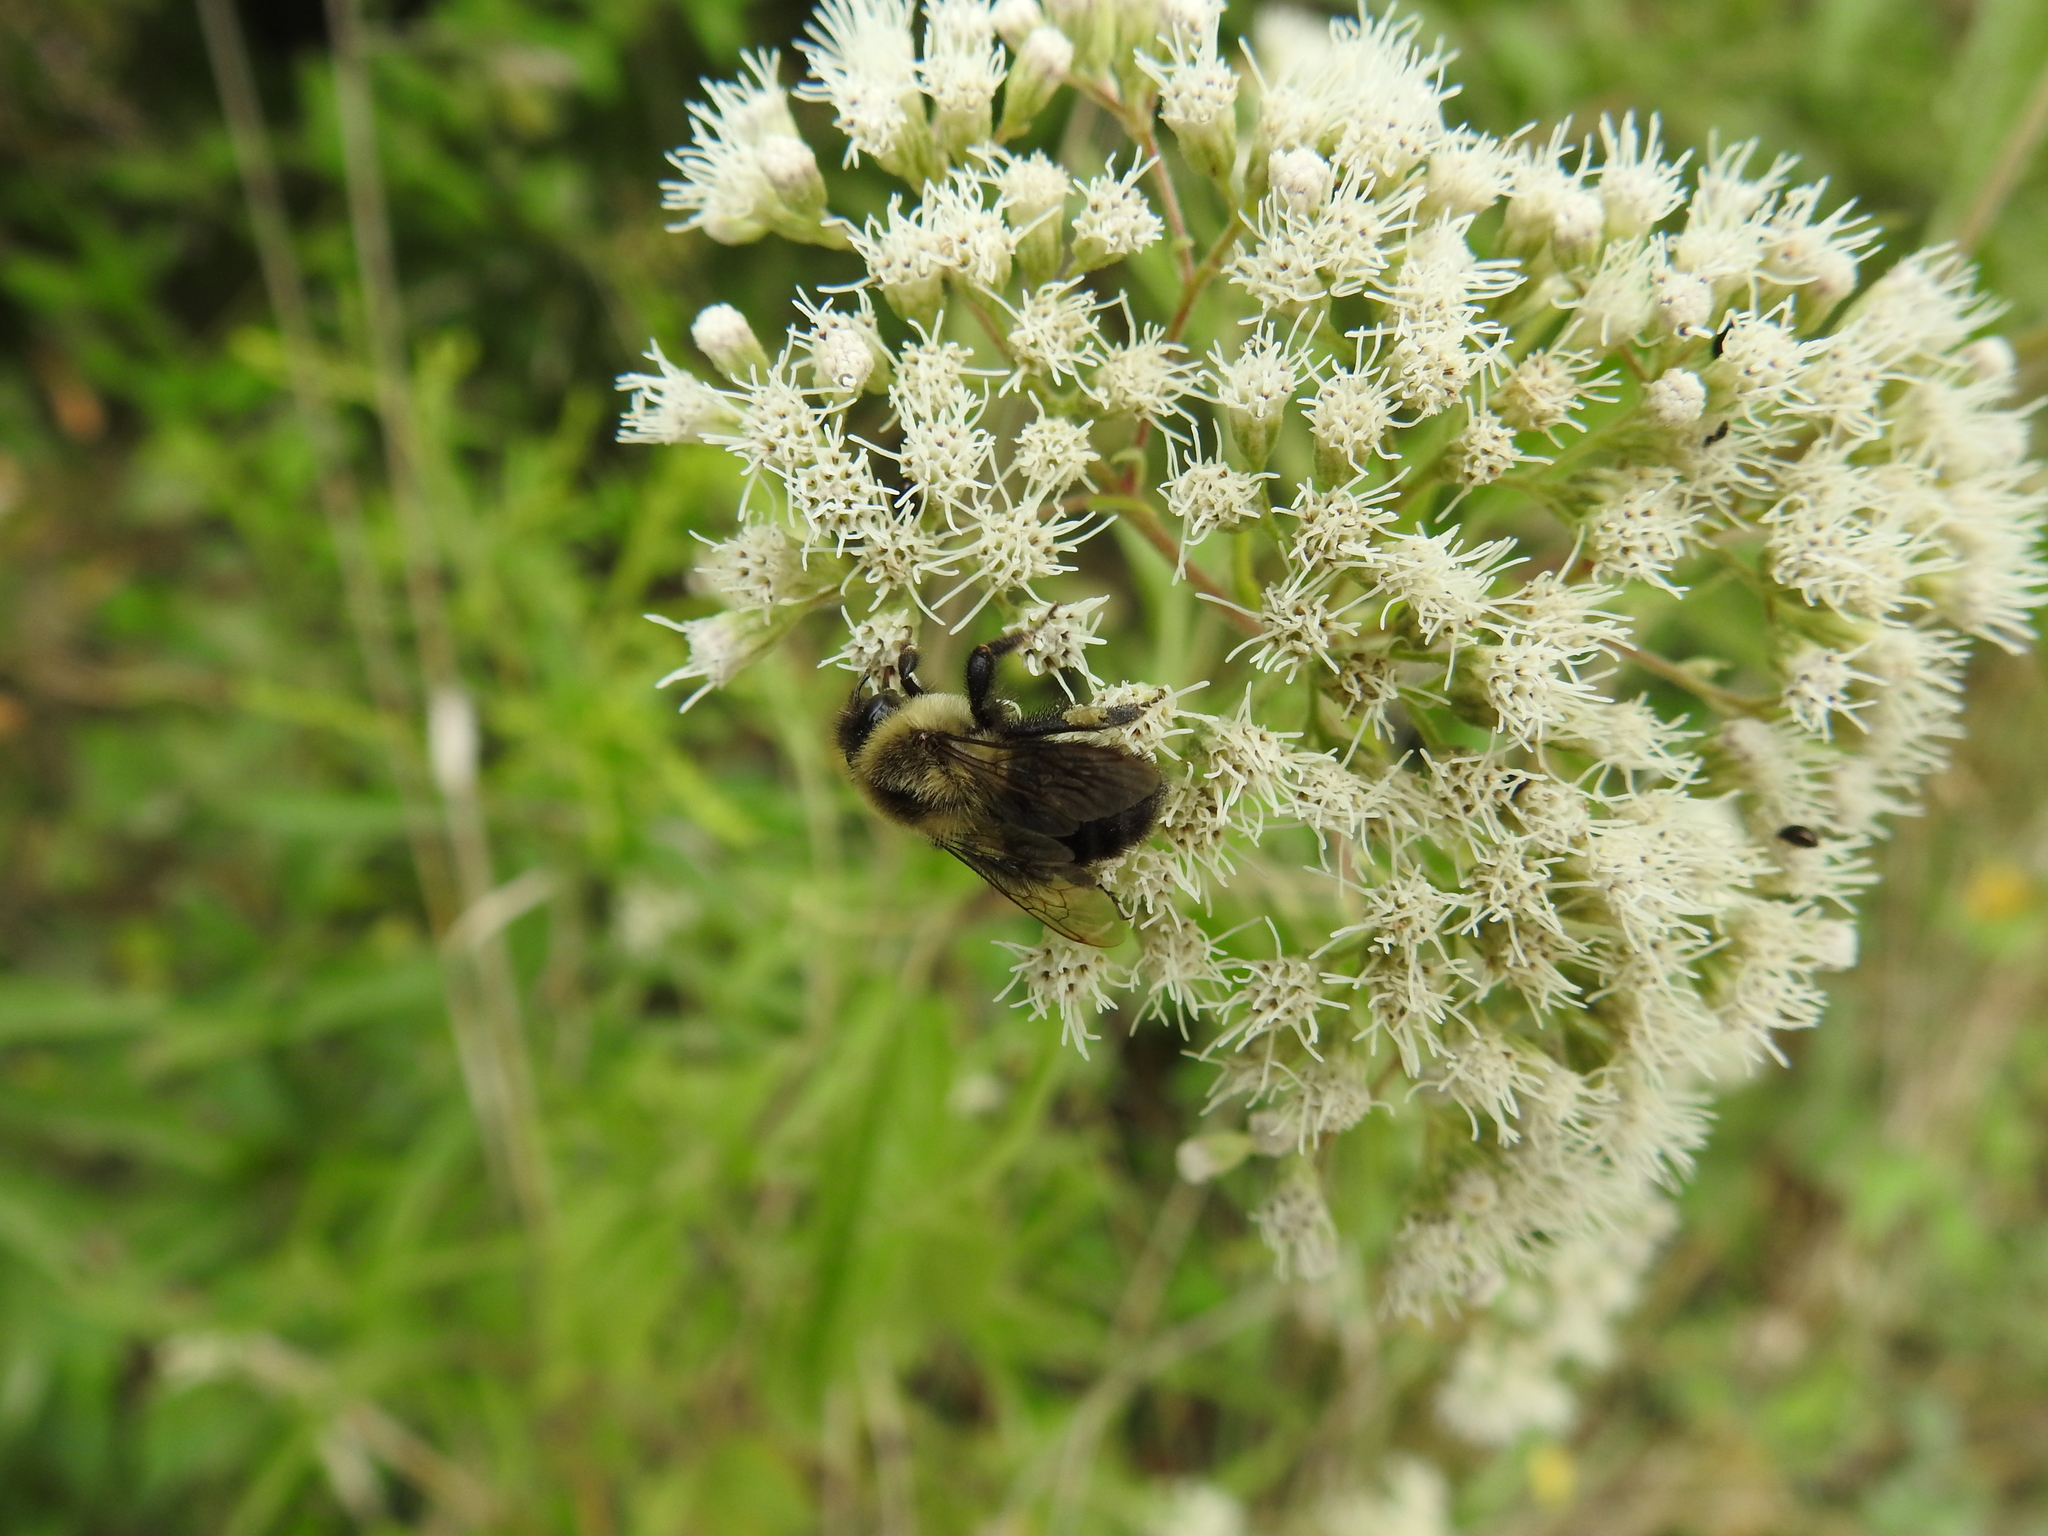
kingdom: Animalia
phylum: Arthropoda
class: Insecta
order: Hymenoptera
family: Apidae
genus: Bombus
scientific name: Bombus impatiens
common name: Common eastern bumble bee
